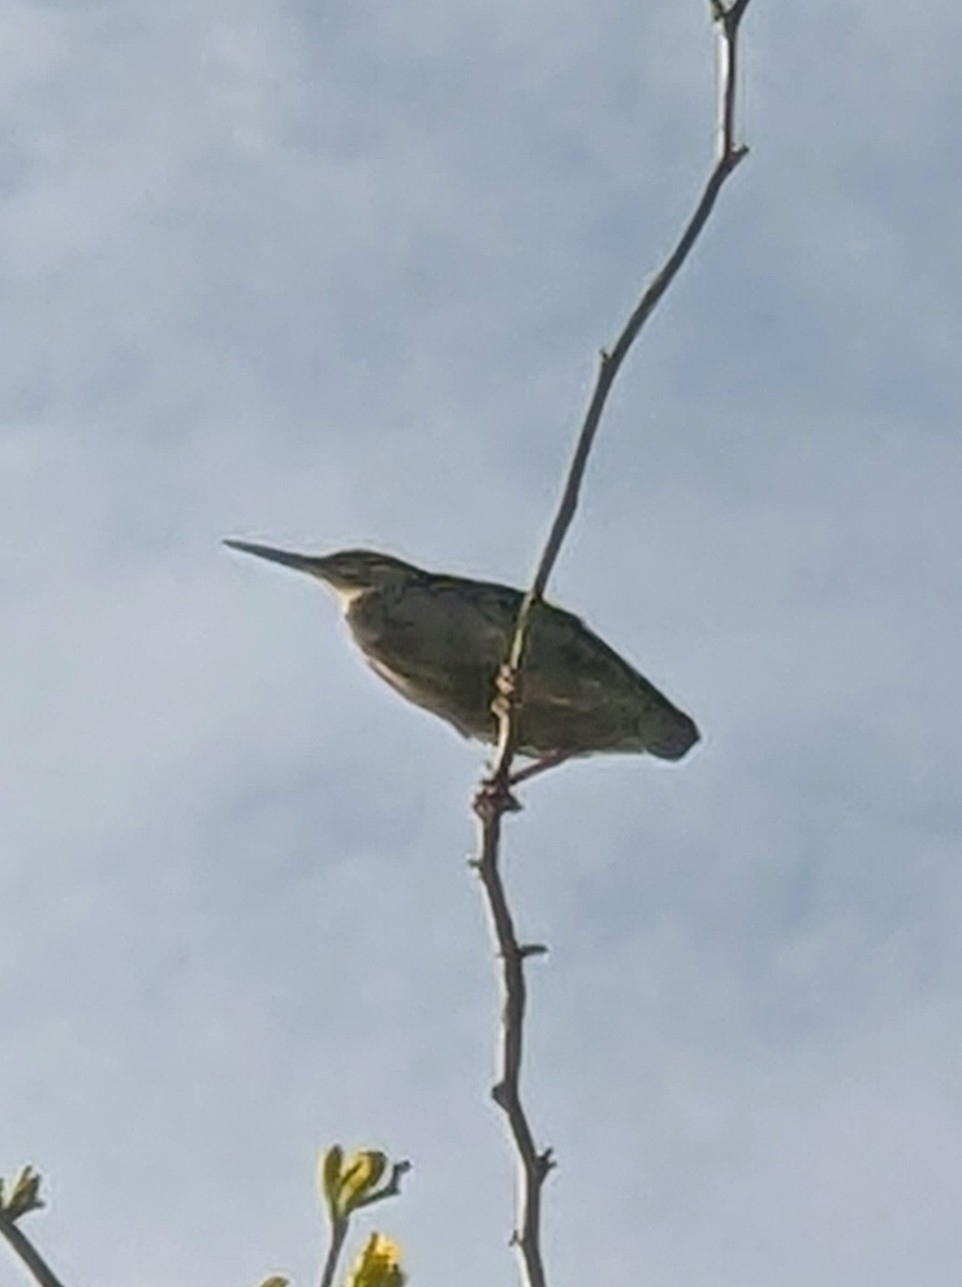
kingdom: Animalia
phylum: Chordata
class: Aves
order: Pelecaniformes
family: Ardeidae
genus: Butorides
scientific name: Butorides virescens
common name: Green heron
